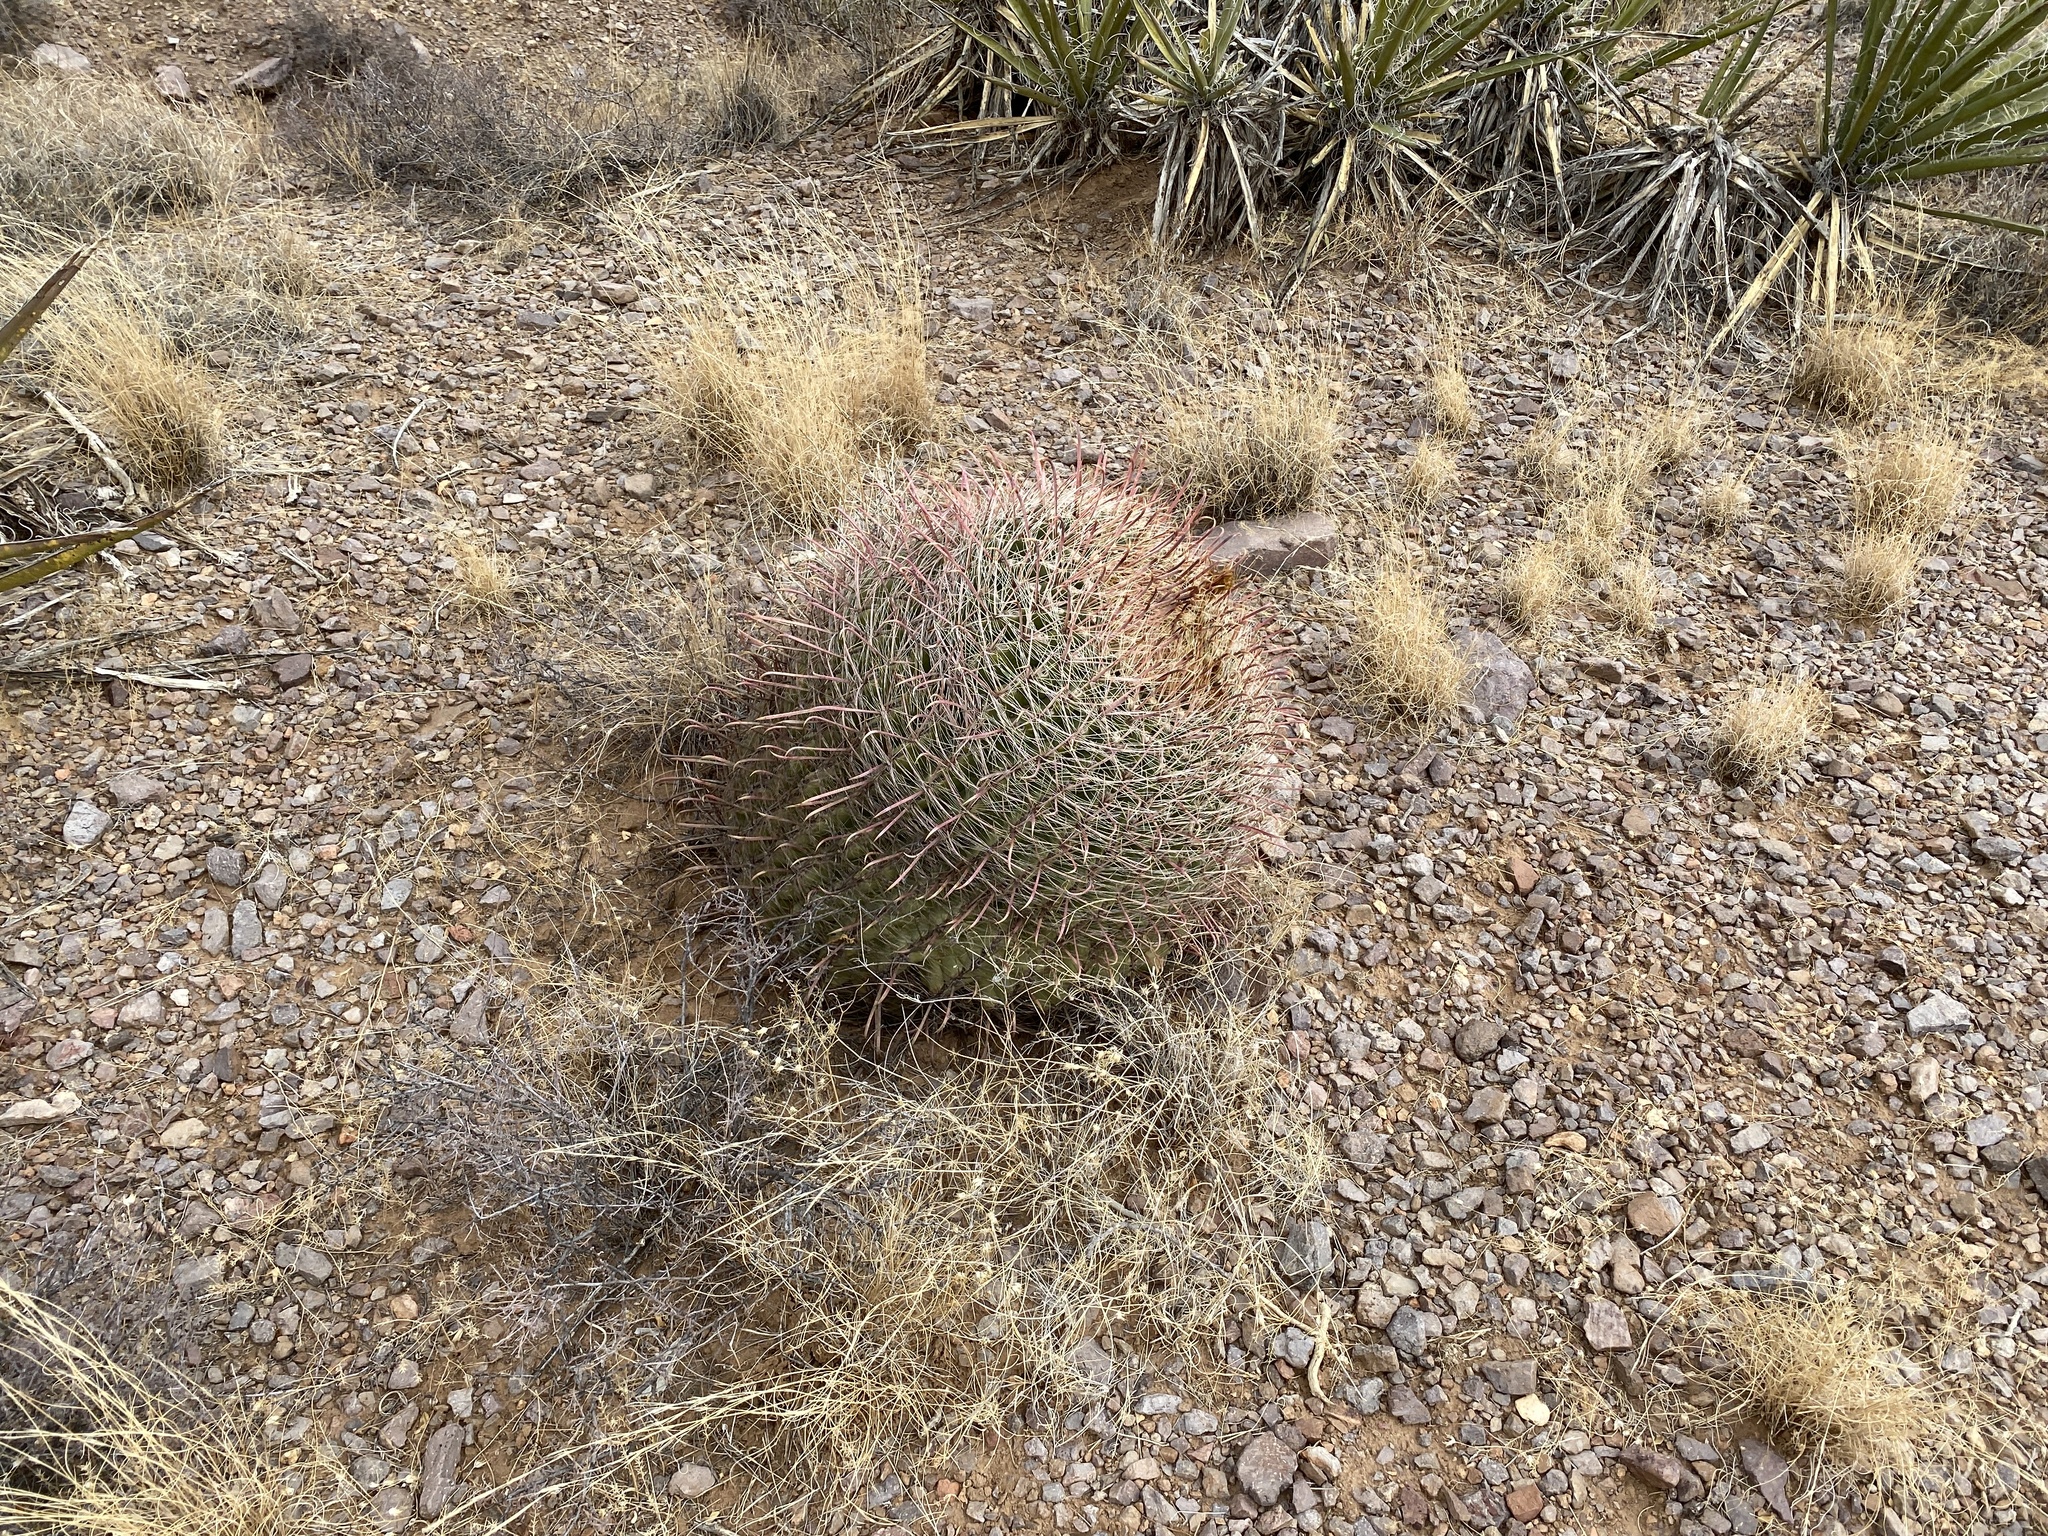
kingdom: Plantae
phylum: Tracheophyta
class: Magnoliopsida
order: Caryophyllales
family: Cactaceae
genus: Ferocactus
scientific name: Ferocactus wislizeni
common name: Candy barrel cactus
